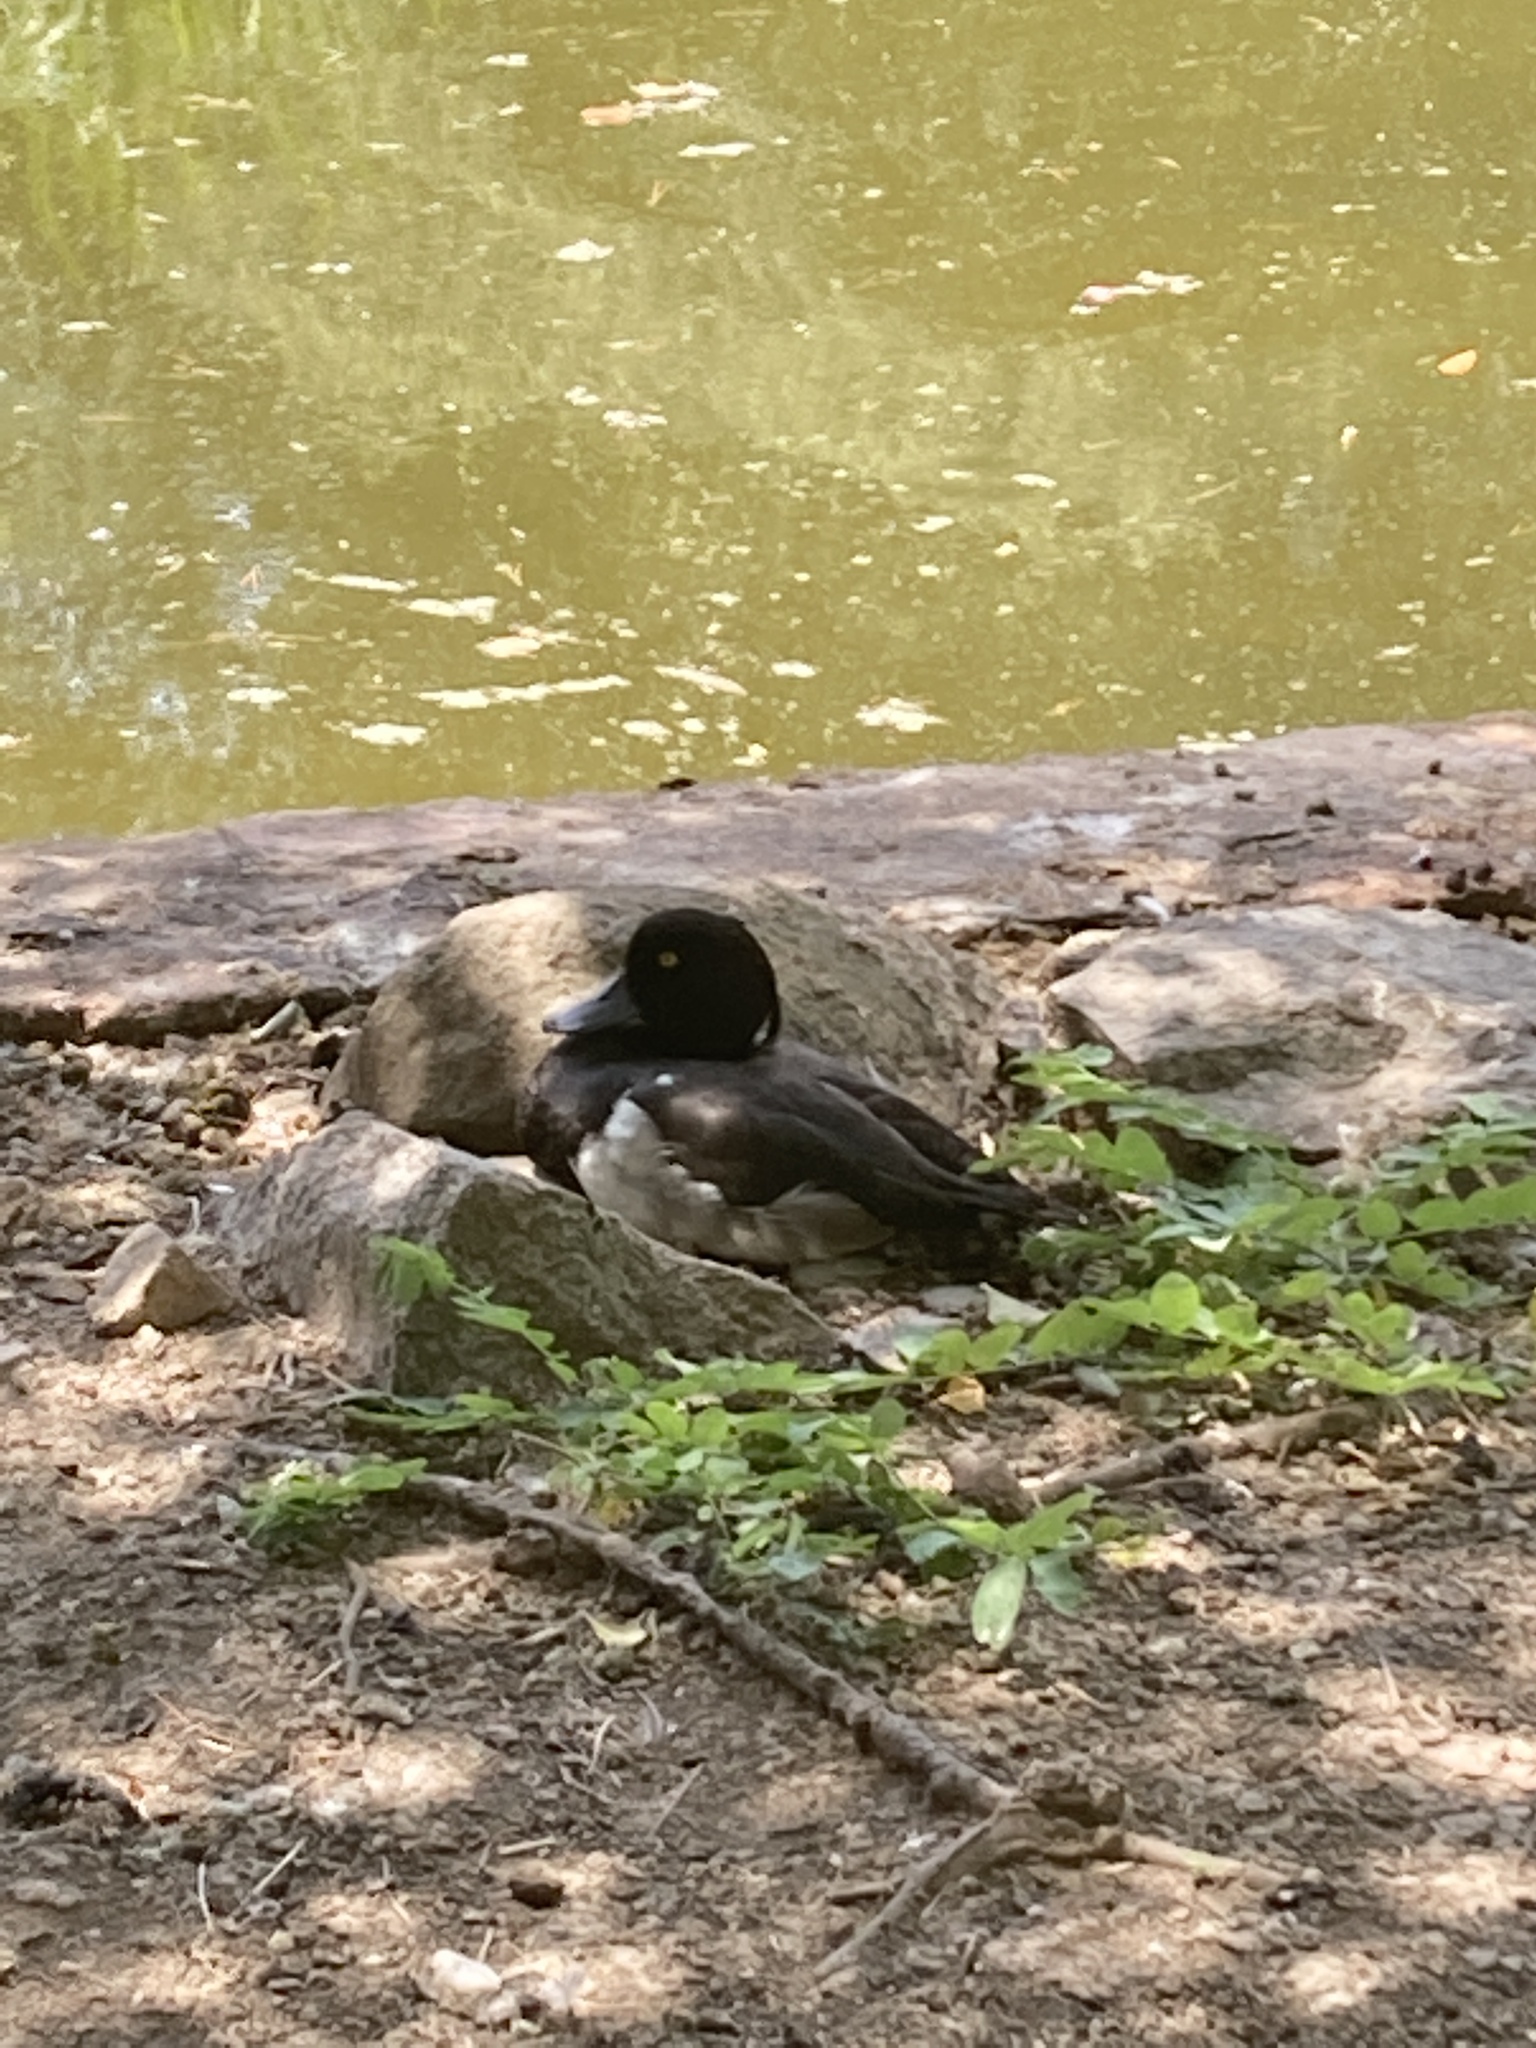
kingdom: Animalia
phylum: Chordata
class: Aves
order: Anseriformes
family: Anatidae
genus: Aythya
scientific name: Aythya fuligula
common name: Tufted duck
